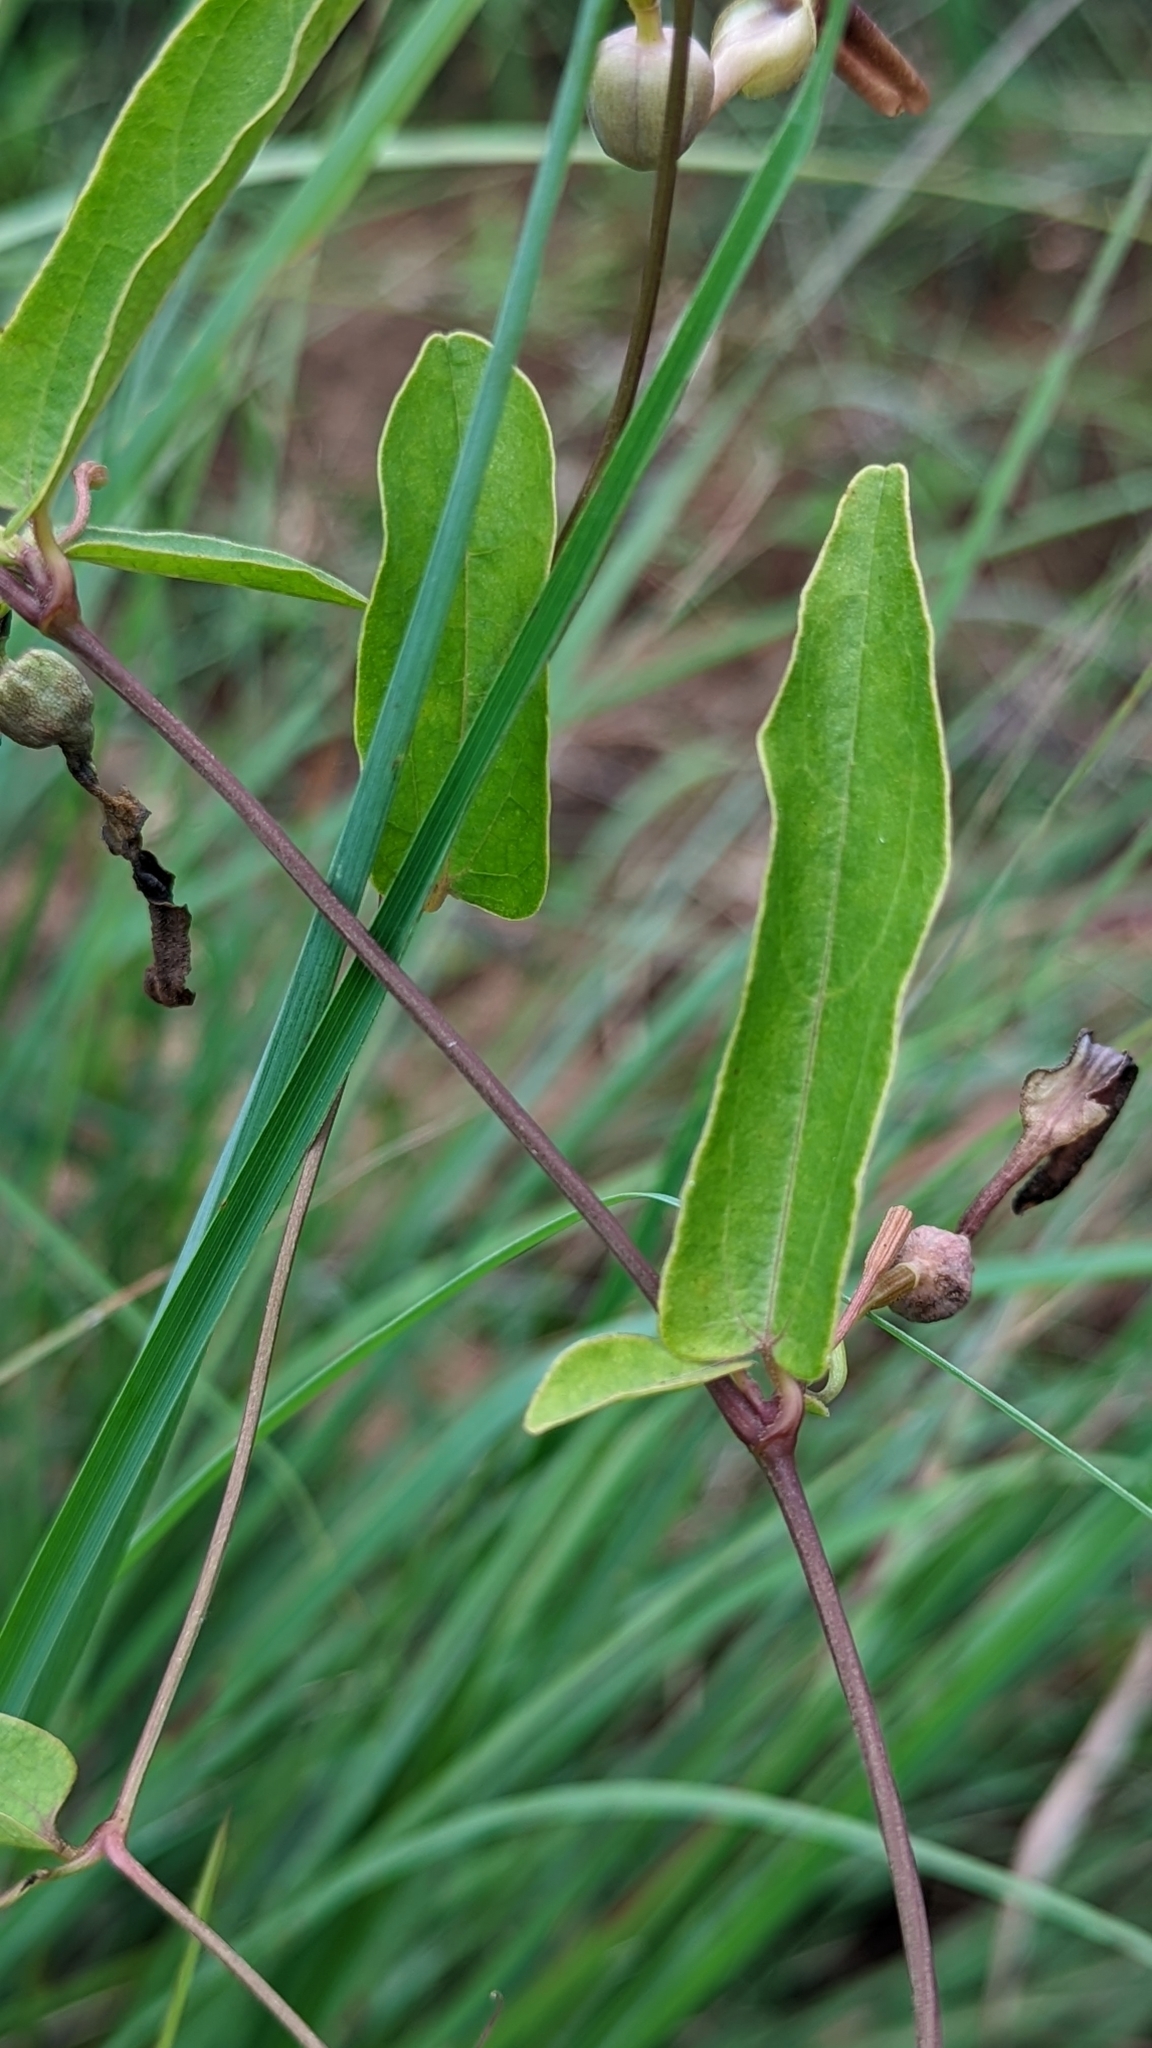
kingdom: Plantae
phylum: Tracheophyta
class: Magnoliopsida
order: Piperales
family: Aristolochiaceae
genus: Aristolochia
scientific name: Aristolochia indica
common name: Indian birthwort
